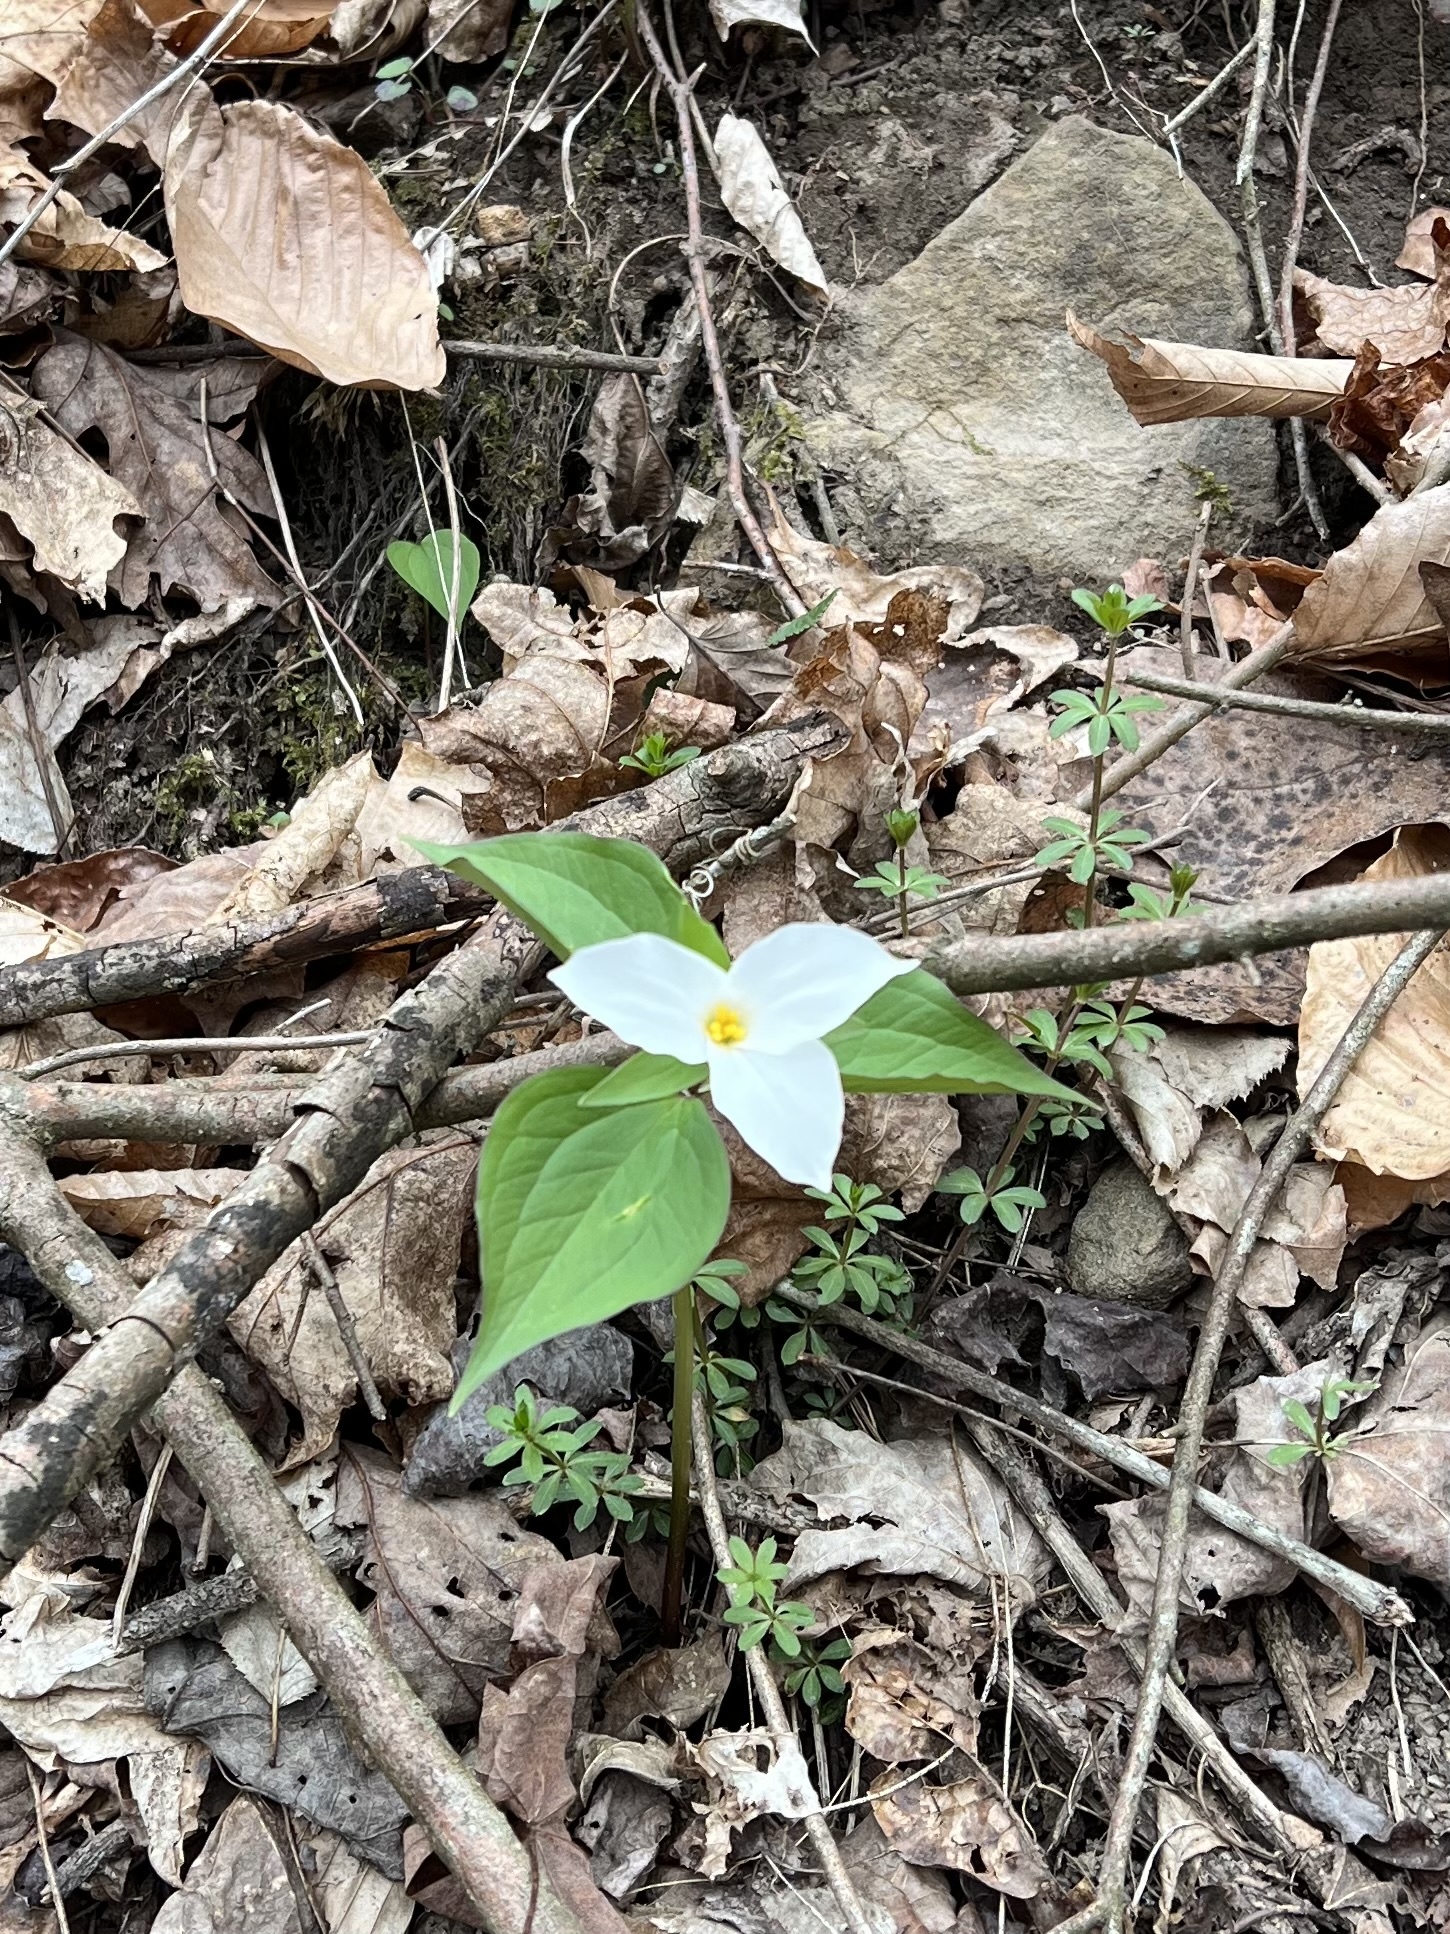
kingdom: Plantae
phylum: Tracheophyta
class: Liliopsida
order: Liliales
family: Melanthiaceae
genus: Trillium
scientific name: Trillium grandiflorum
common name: Great white trillium
